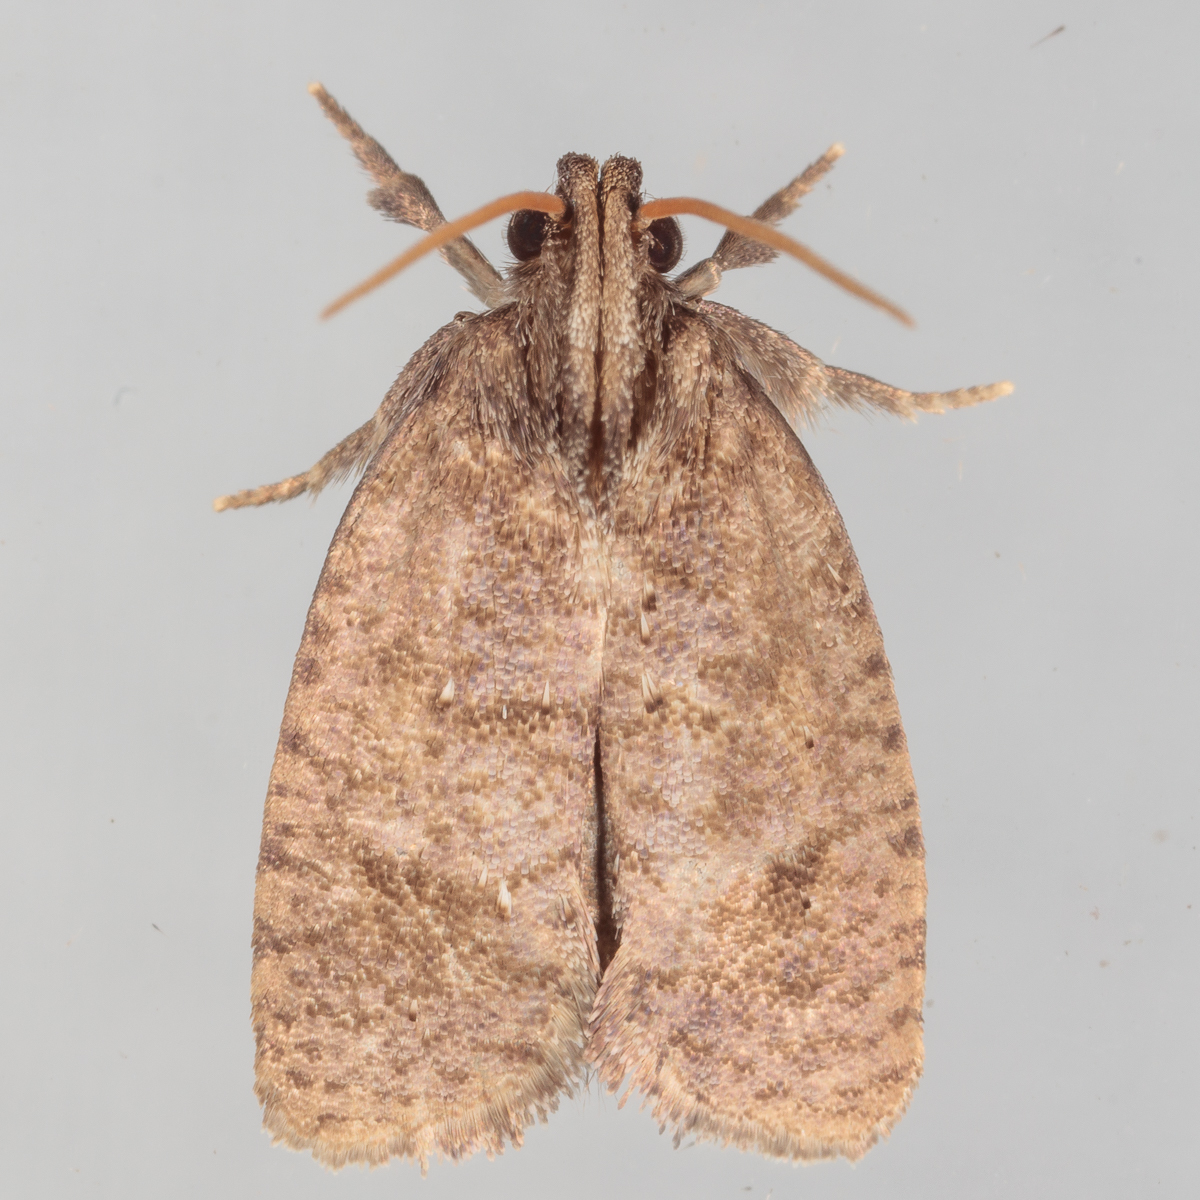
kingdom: Animalia
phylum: Arthropoda
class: Insecta
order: Lepidoptera
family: Tineidae
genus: Acrolophus
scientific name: Acrolophus texanella
